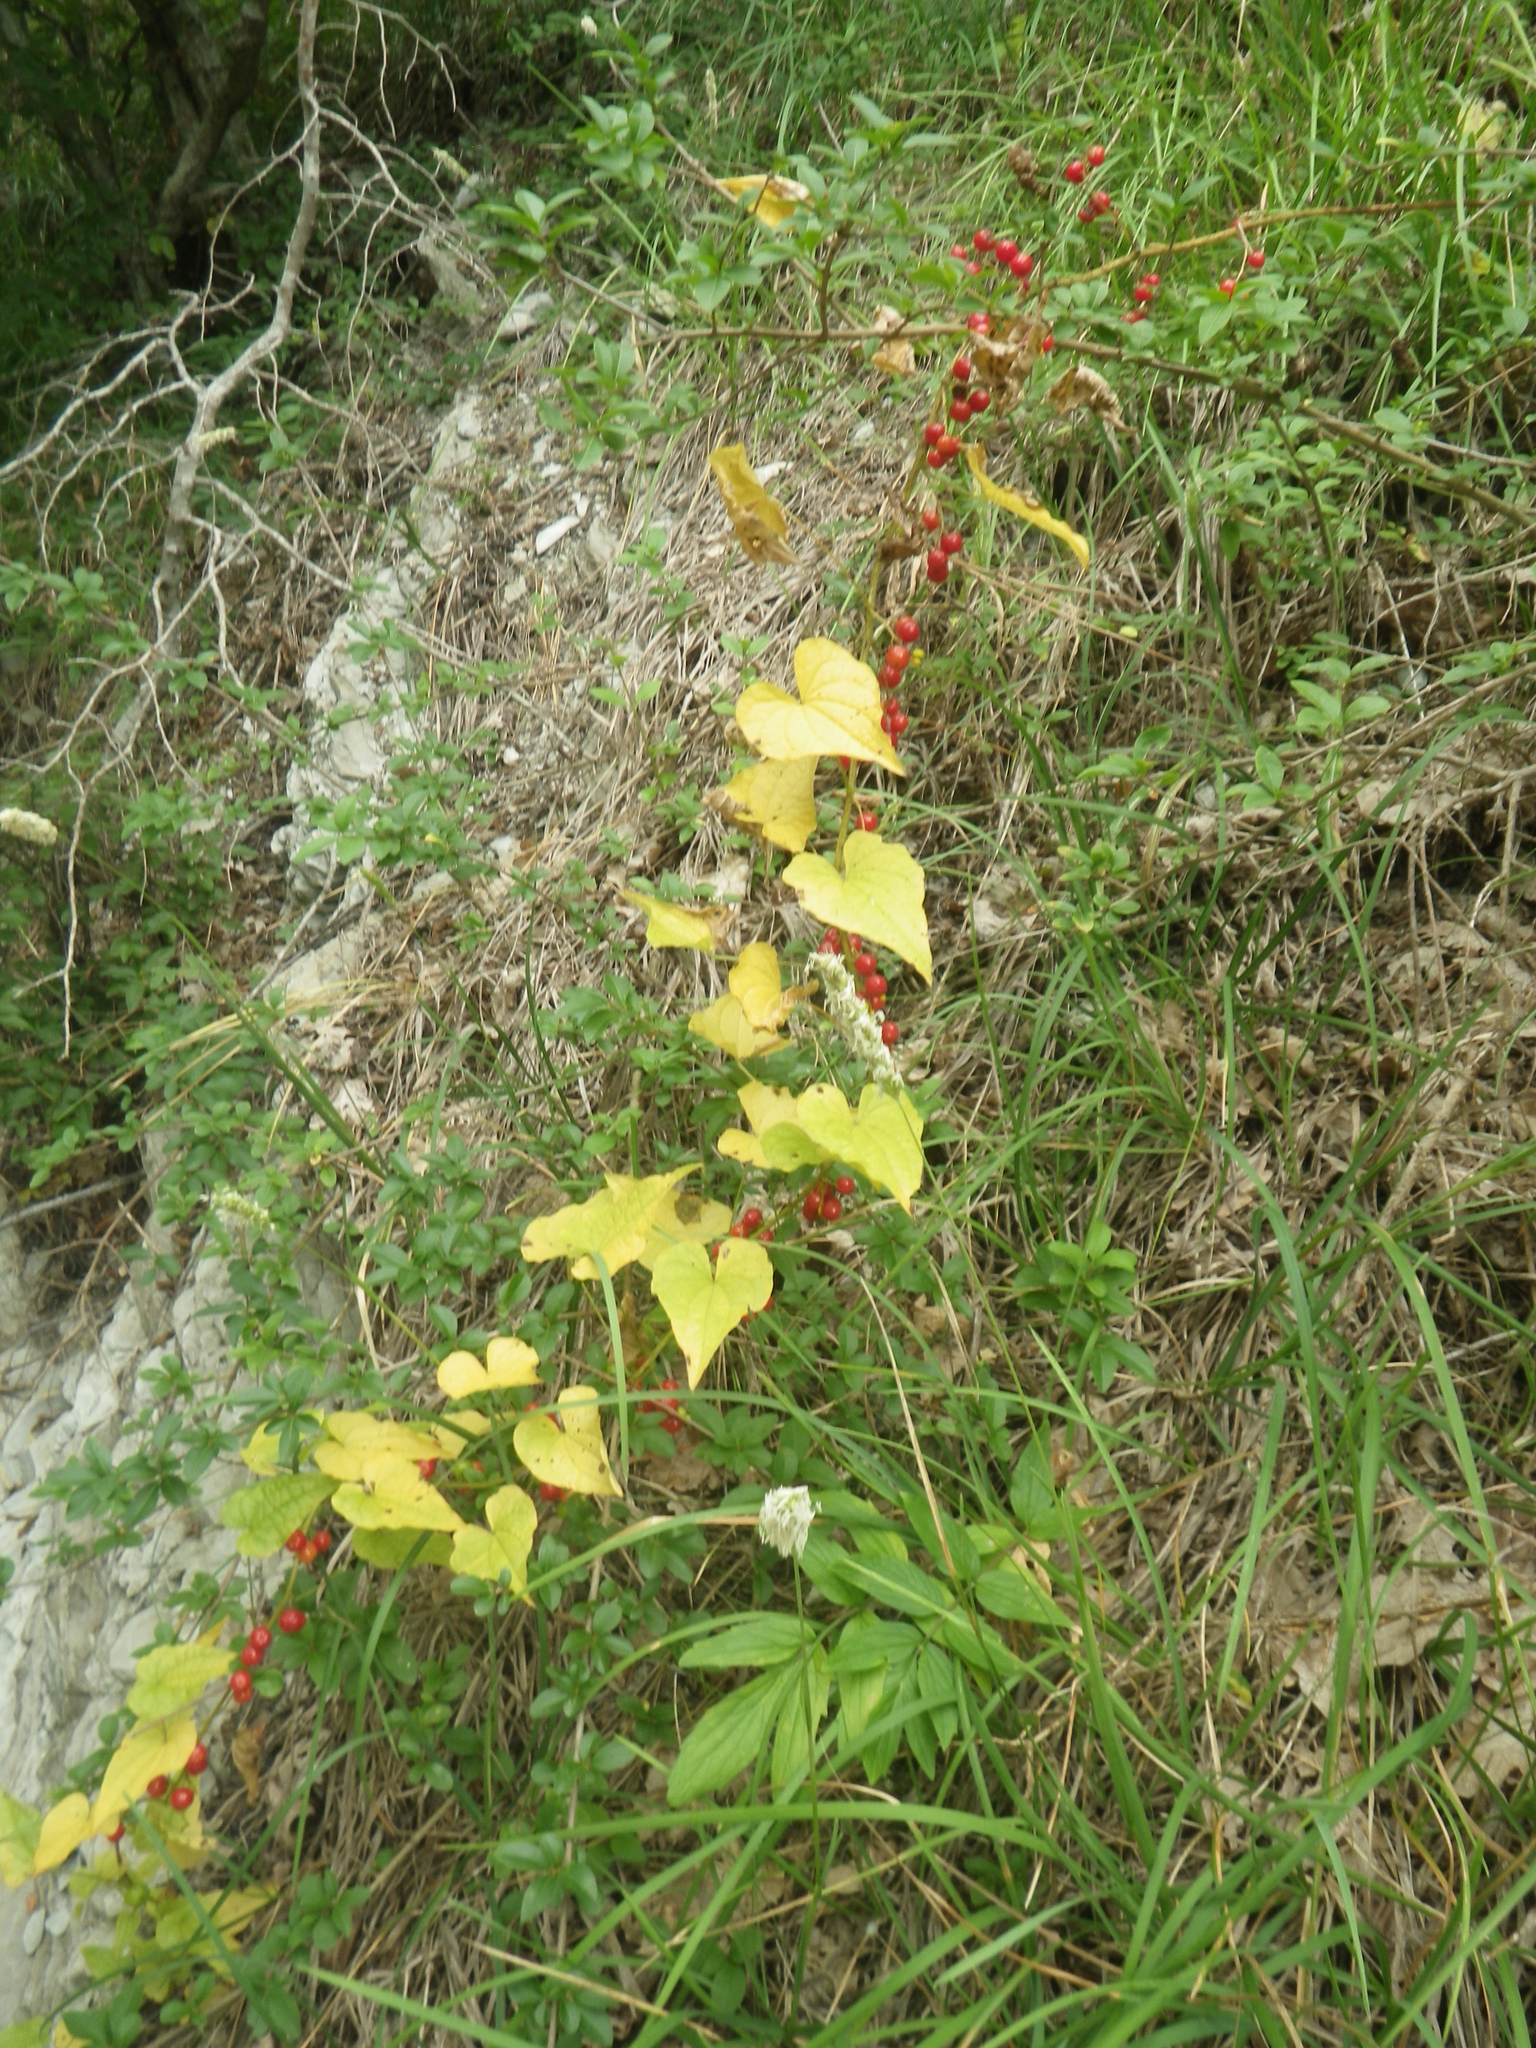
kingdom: Plantae
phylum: Tracheophyta
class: Liliopsida
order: Dioscoreales
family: Dioscoreaceae
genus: Dioscorea
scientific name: Dioscorea communis
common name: Black-bindweed
